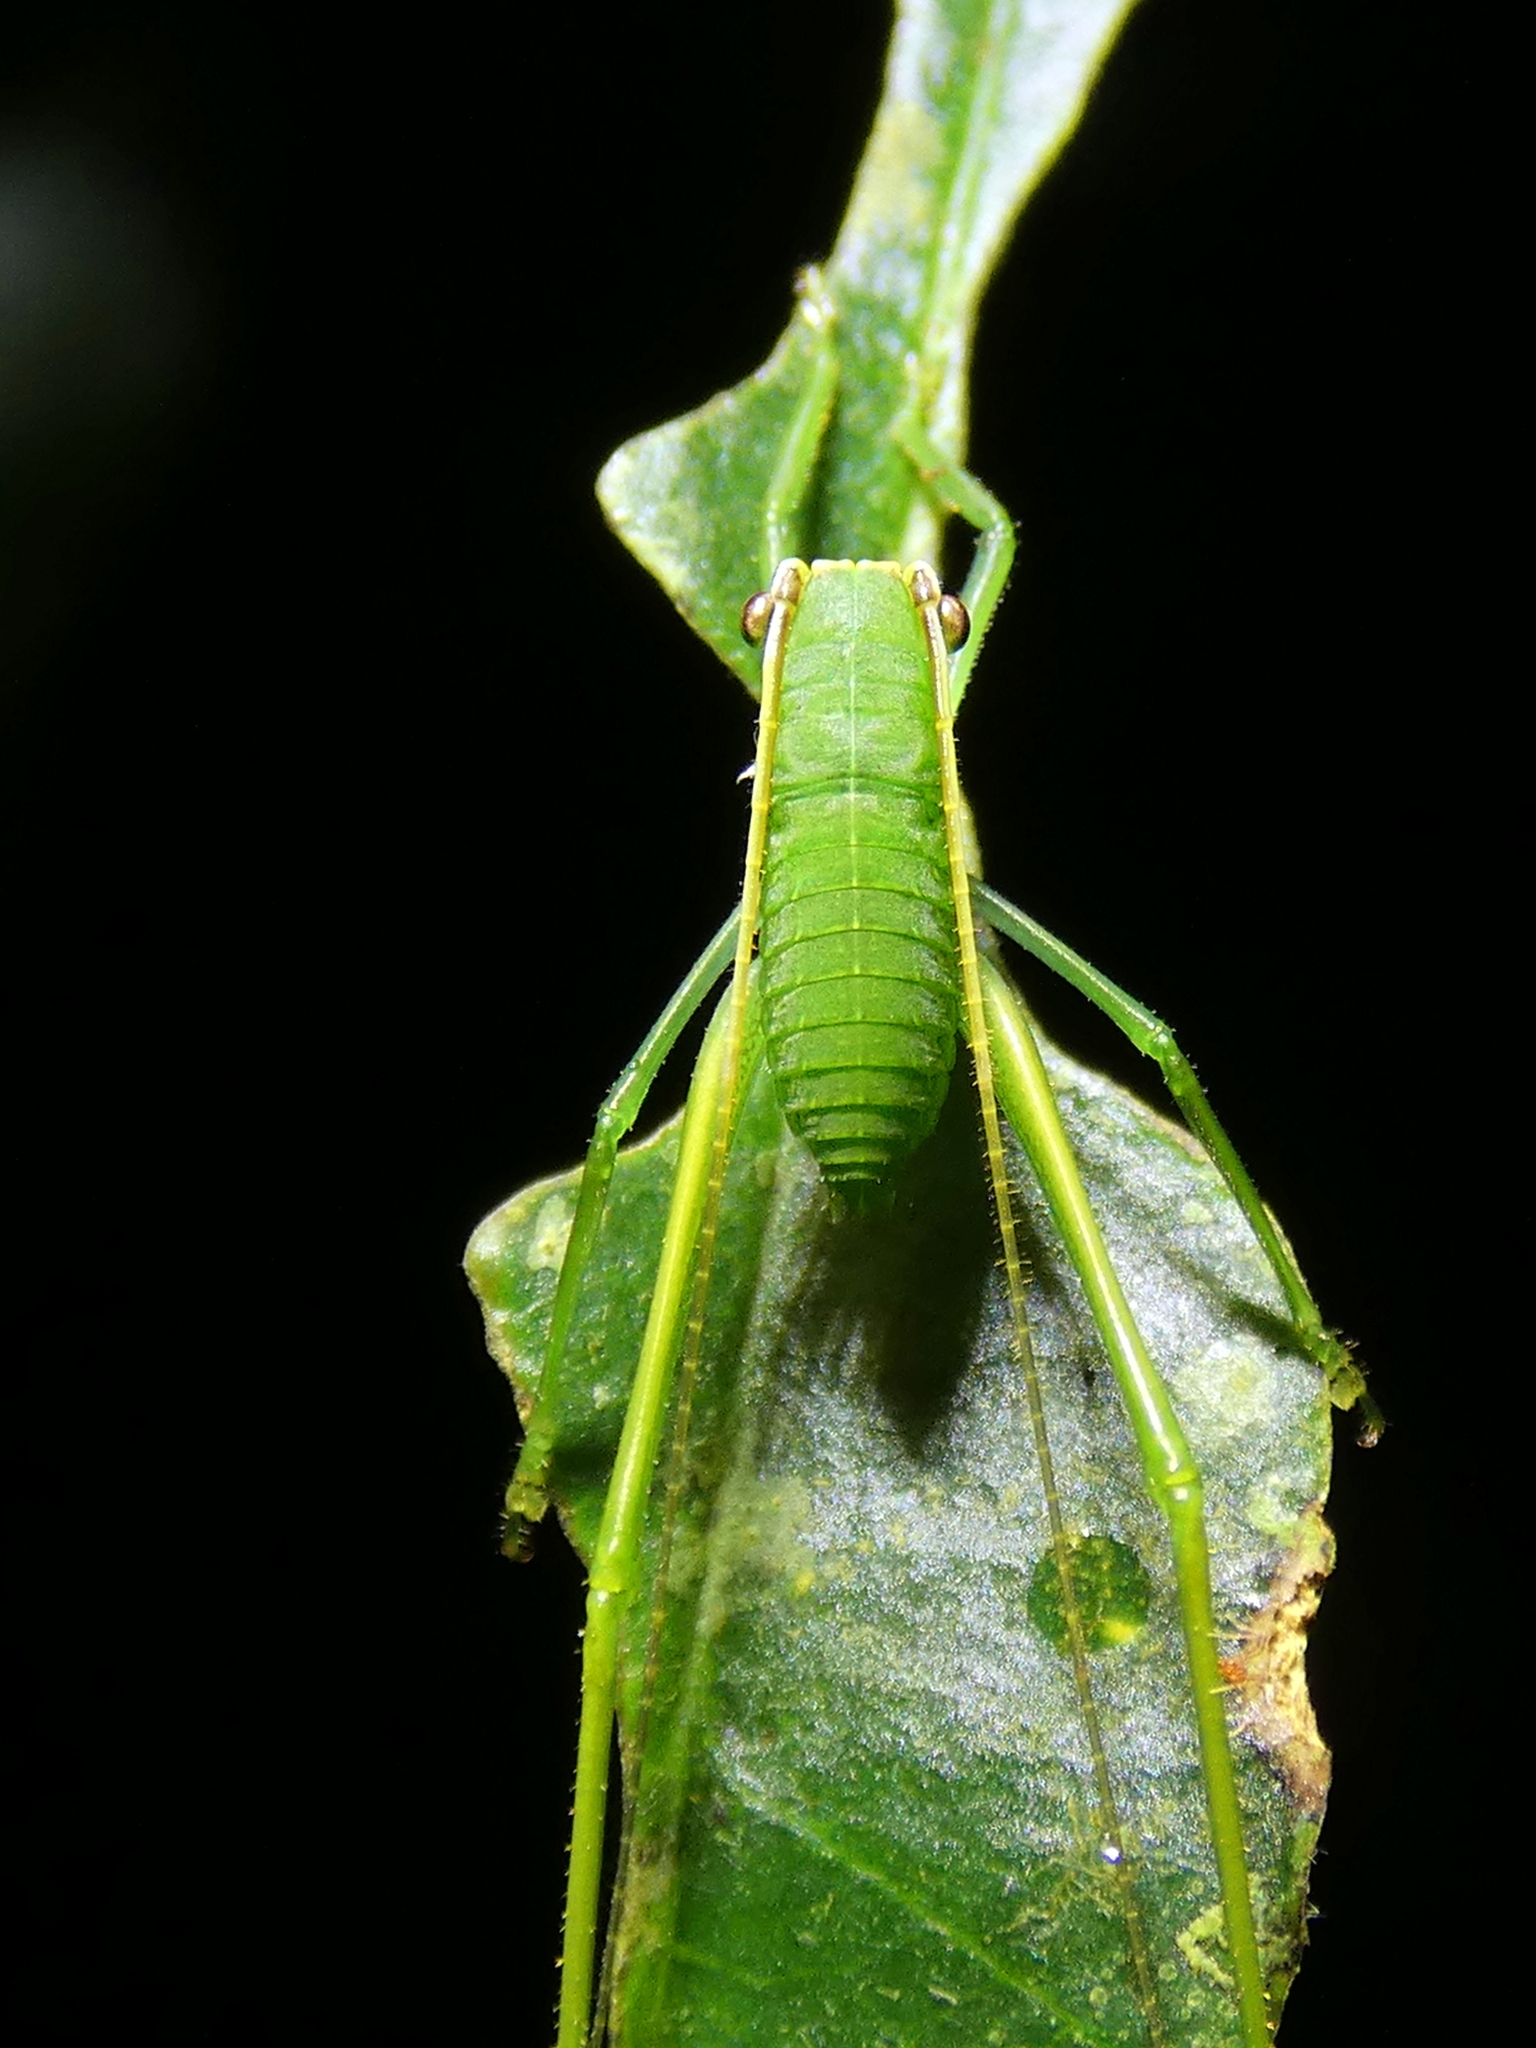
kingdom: Animalia
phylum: Arthropoda
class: Insecta
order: Orthoptera
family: Tettigoniidae
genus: Phyllophorella
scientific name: Phyllophorella queenslandica
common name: Queensland small hooded katydid
